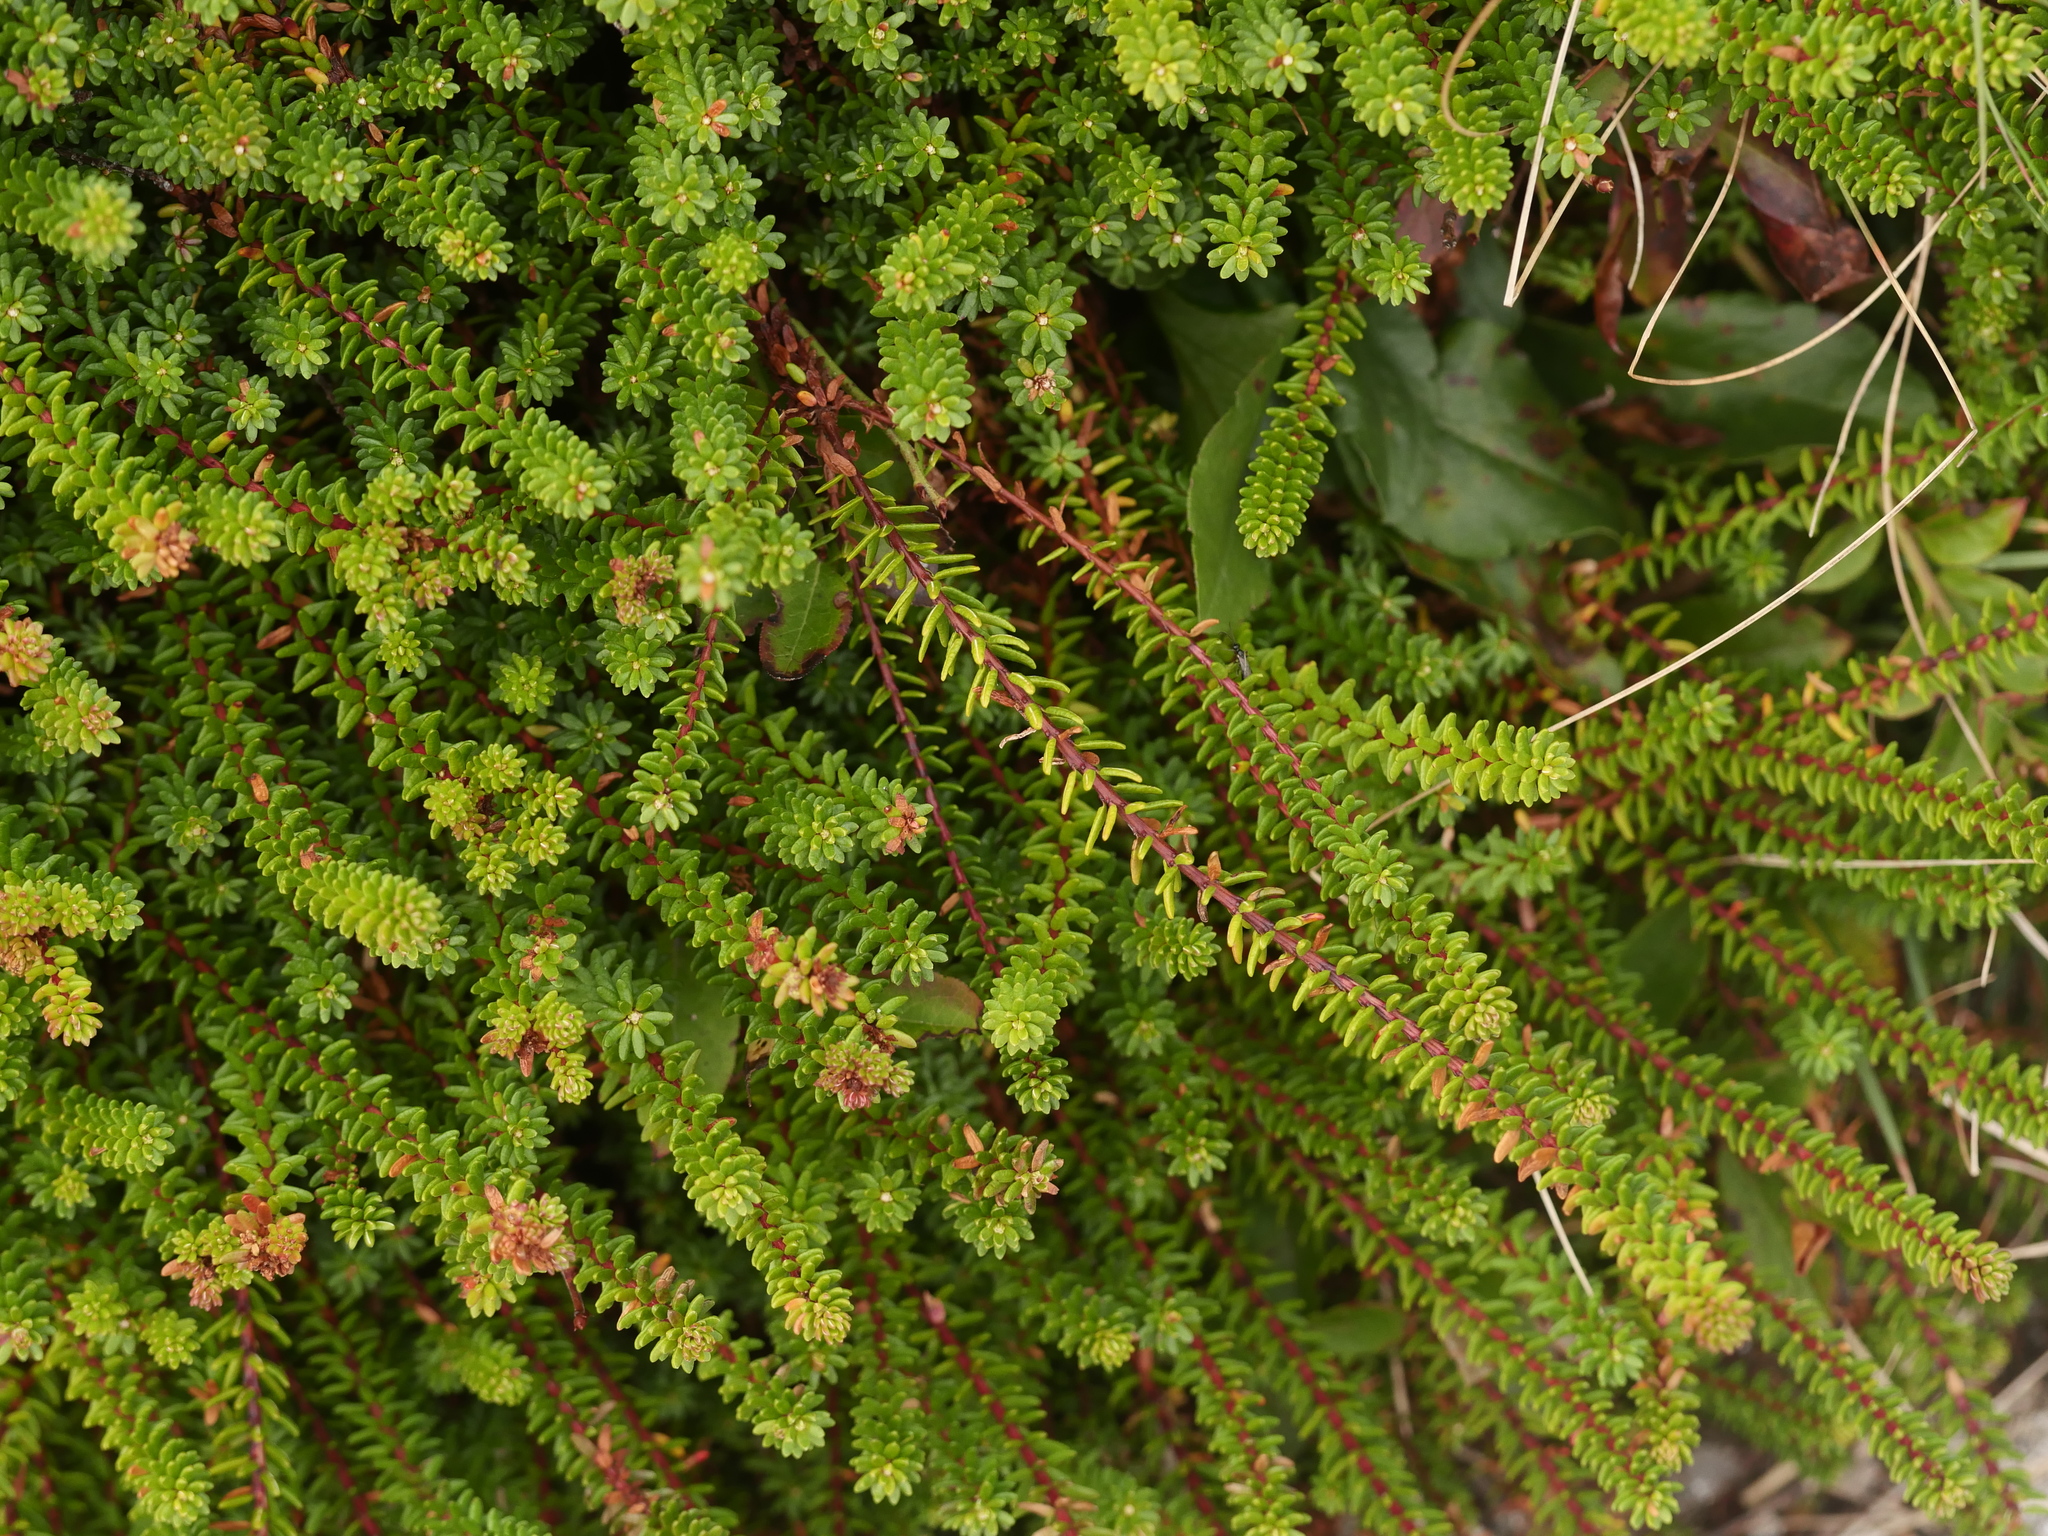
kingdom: Plantae
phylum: Tracheophyta
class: Magnoliopsida
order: Ericales
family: Ericaceae
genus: Empetrum
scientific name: Empetrum nigrum
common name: Black crowberry
